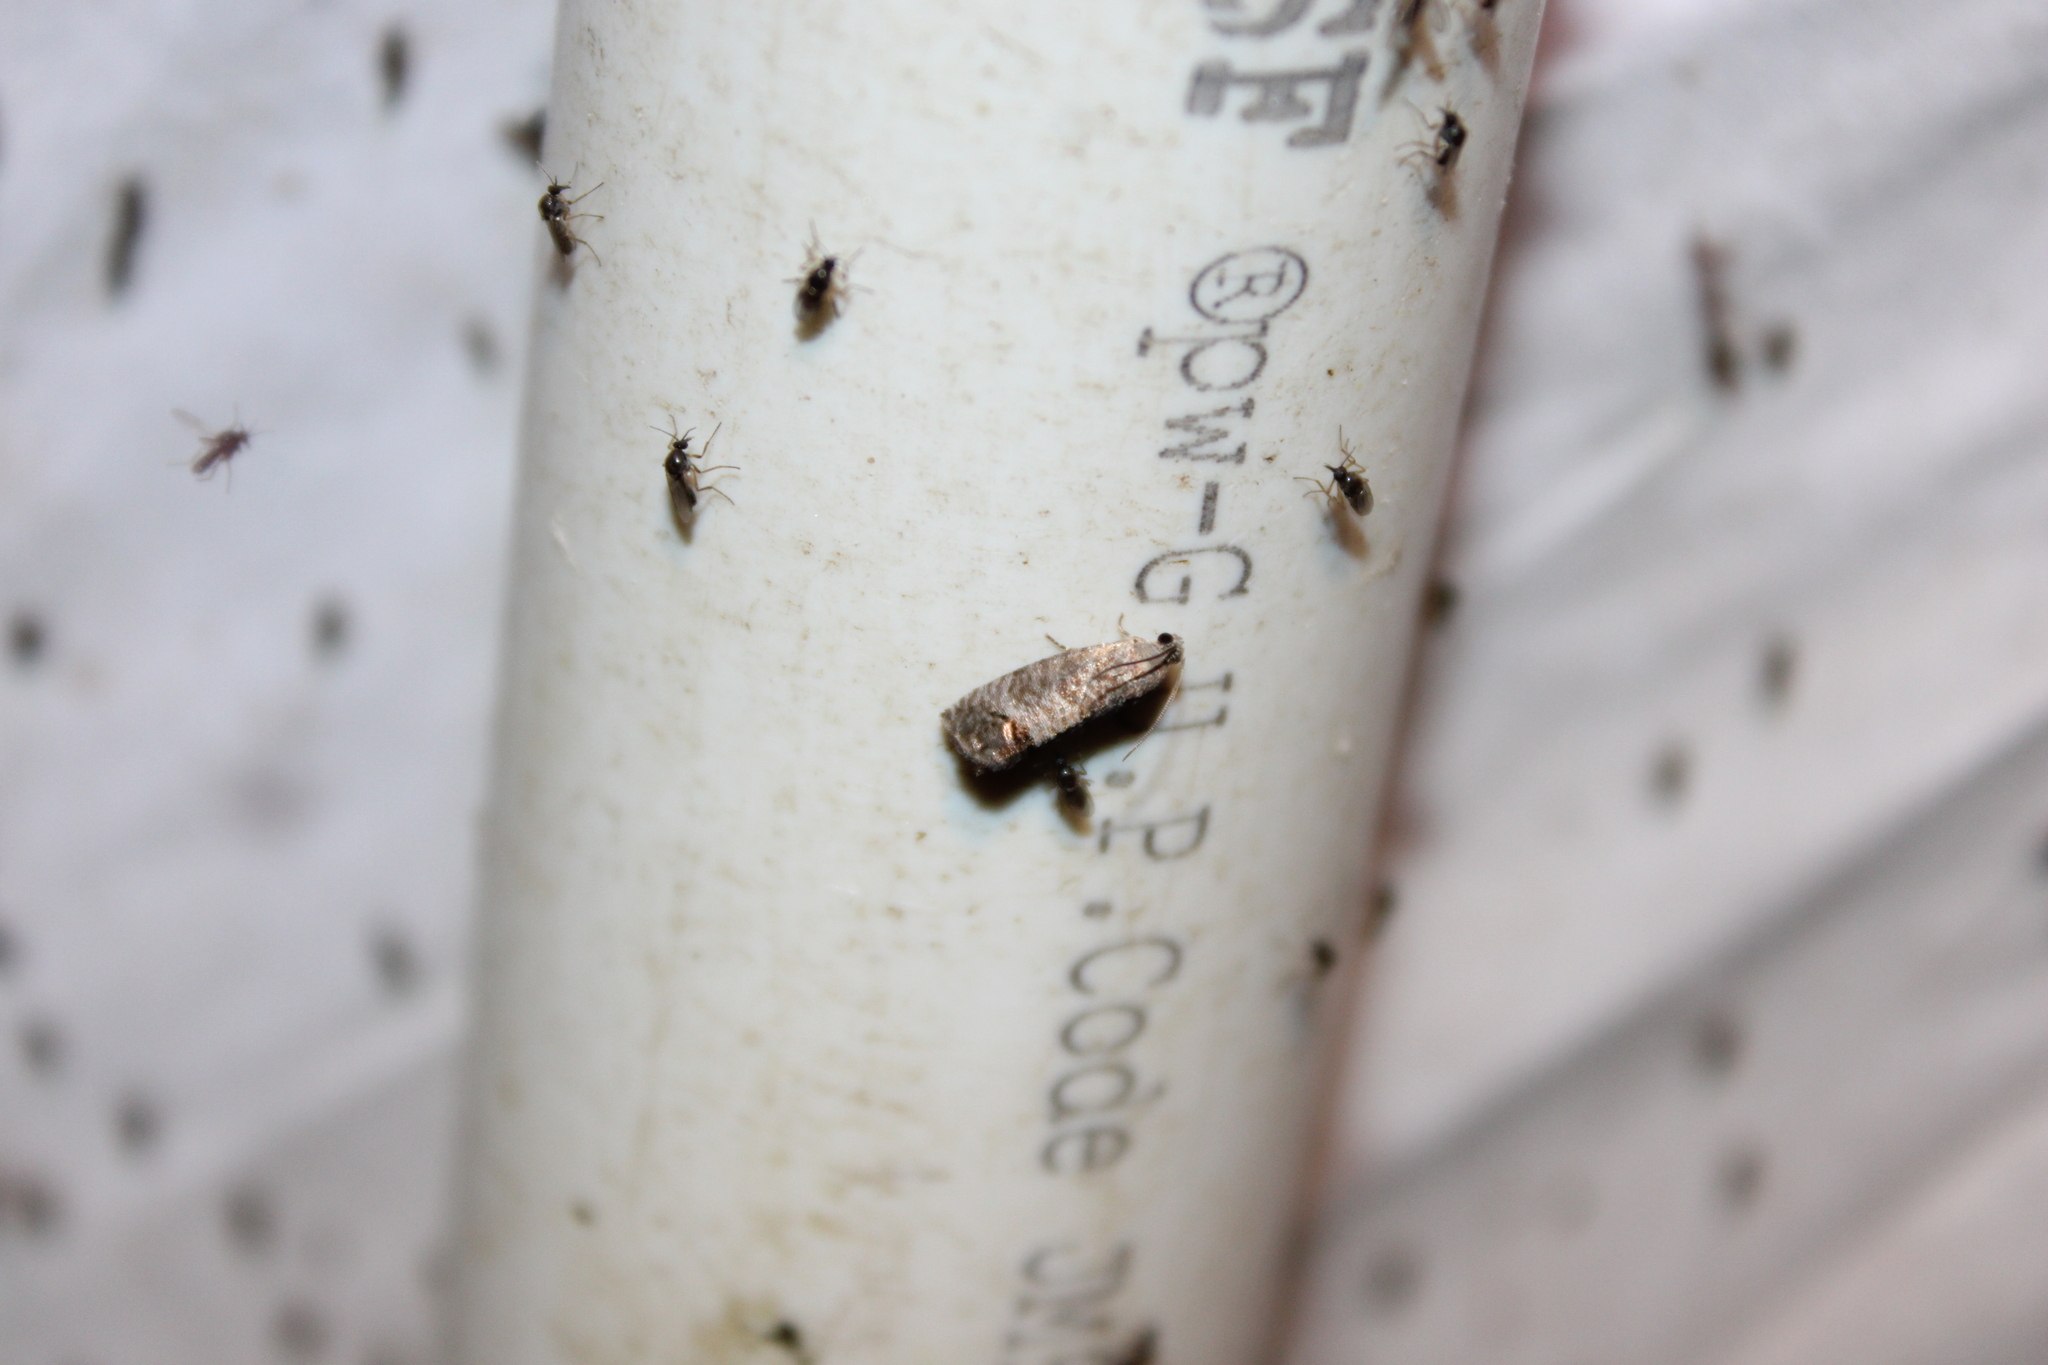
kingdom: Animalia
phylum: Arthropoda
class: Insecta
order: Lepidoptera
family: Tortricidae
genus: Cydia
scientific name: Cydia pomonella
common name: Codling moth
